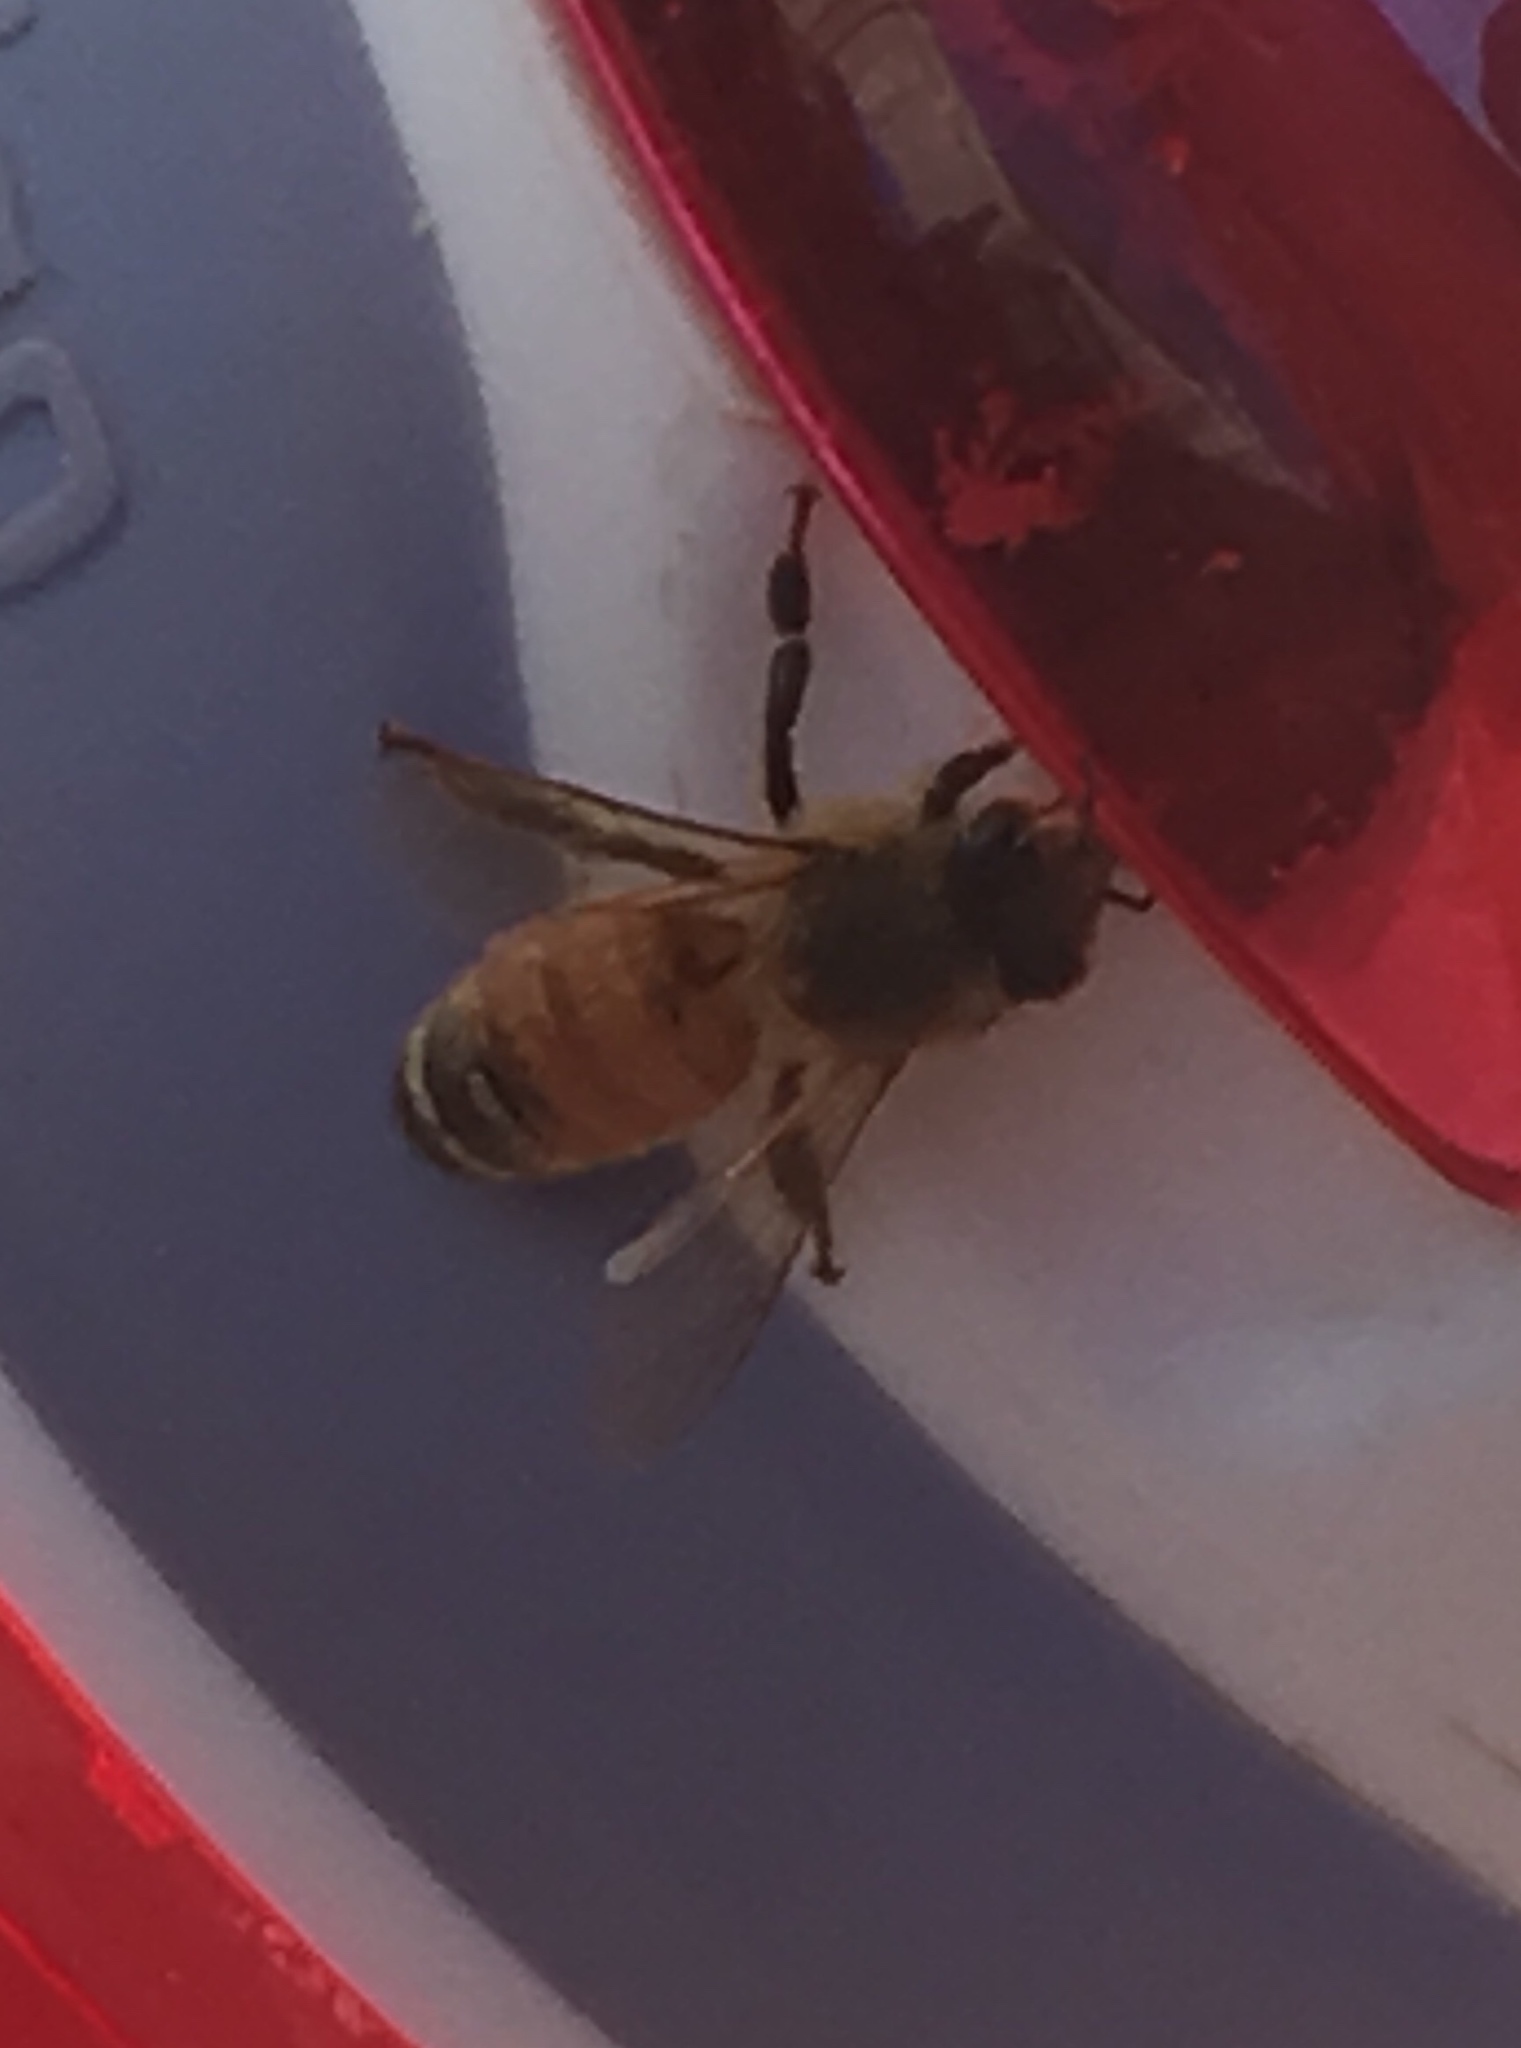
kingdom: Animalia
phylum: Arthropoda
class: Insecta
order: Hymenoptera
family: Apidae
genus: Apis
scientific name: Apis mellifera
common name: Honey bee
